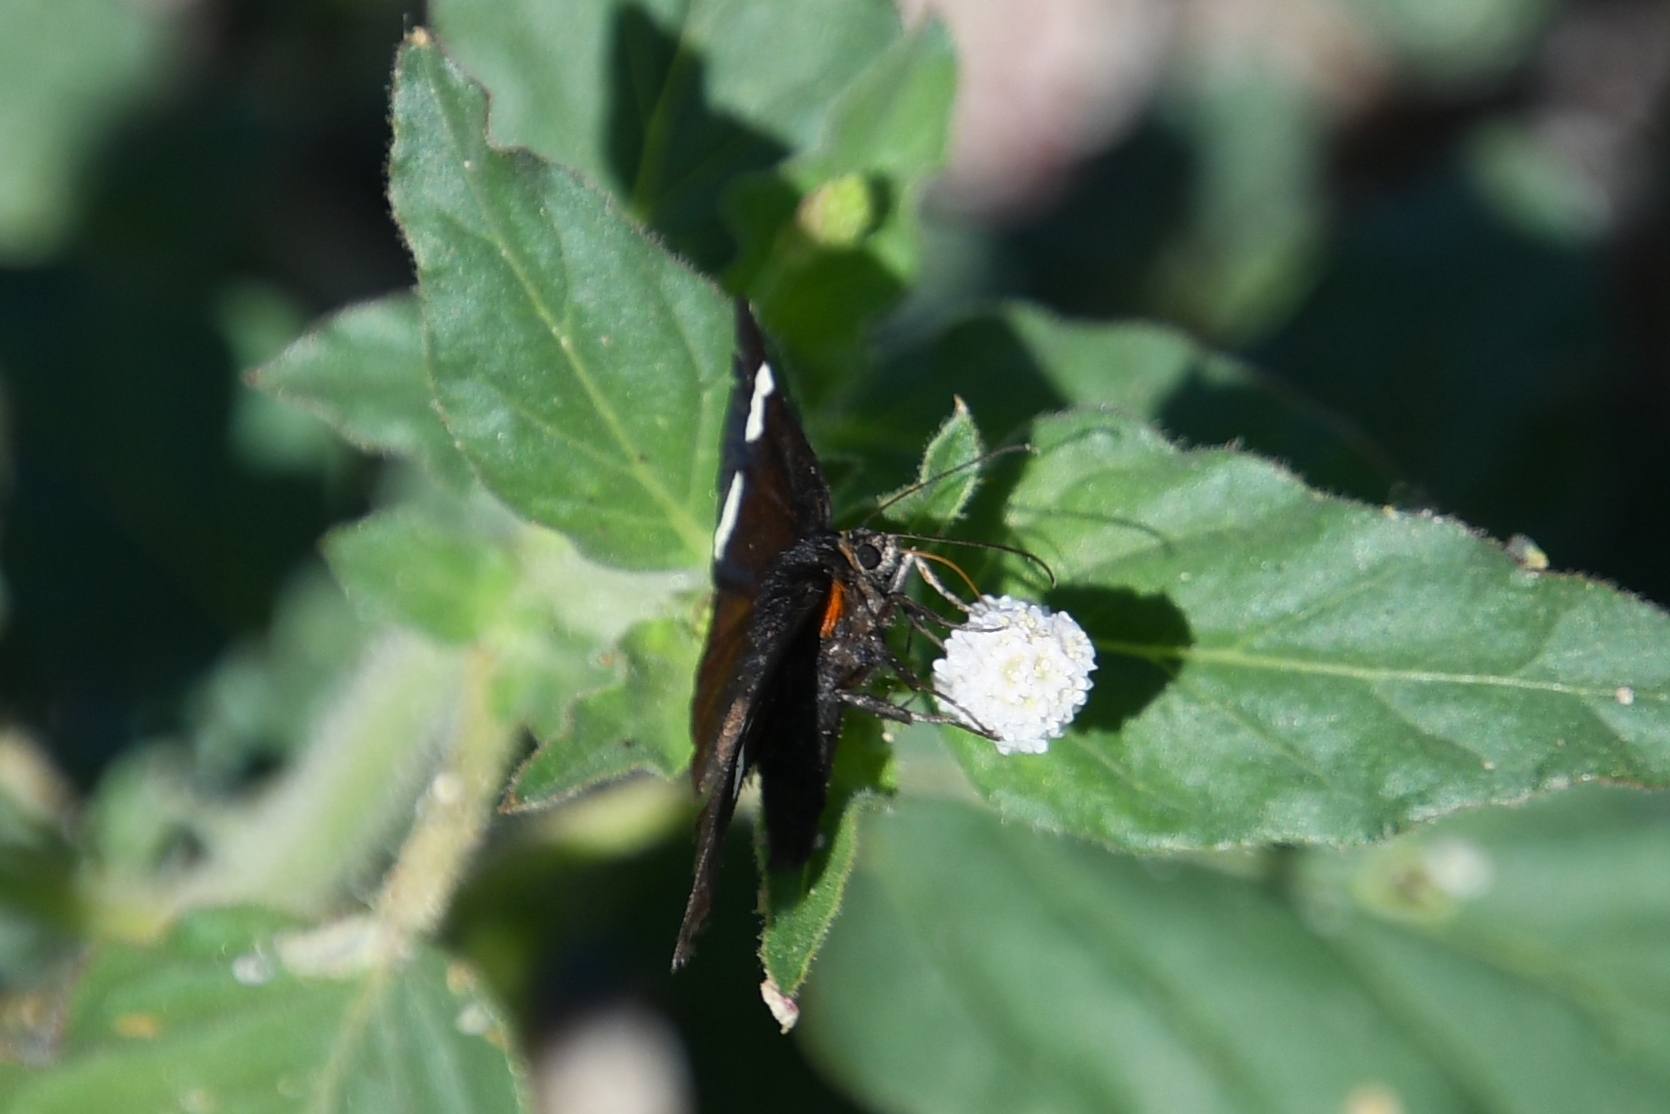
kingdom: Animalia
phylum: Arthropoda
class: Insecta
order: Lepidoptera
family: Noctuidae
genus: Alypiodes
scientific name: Alypiodes geronimo
